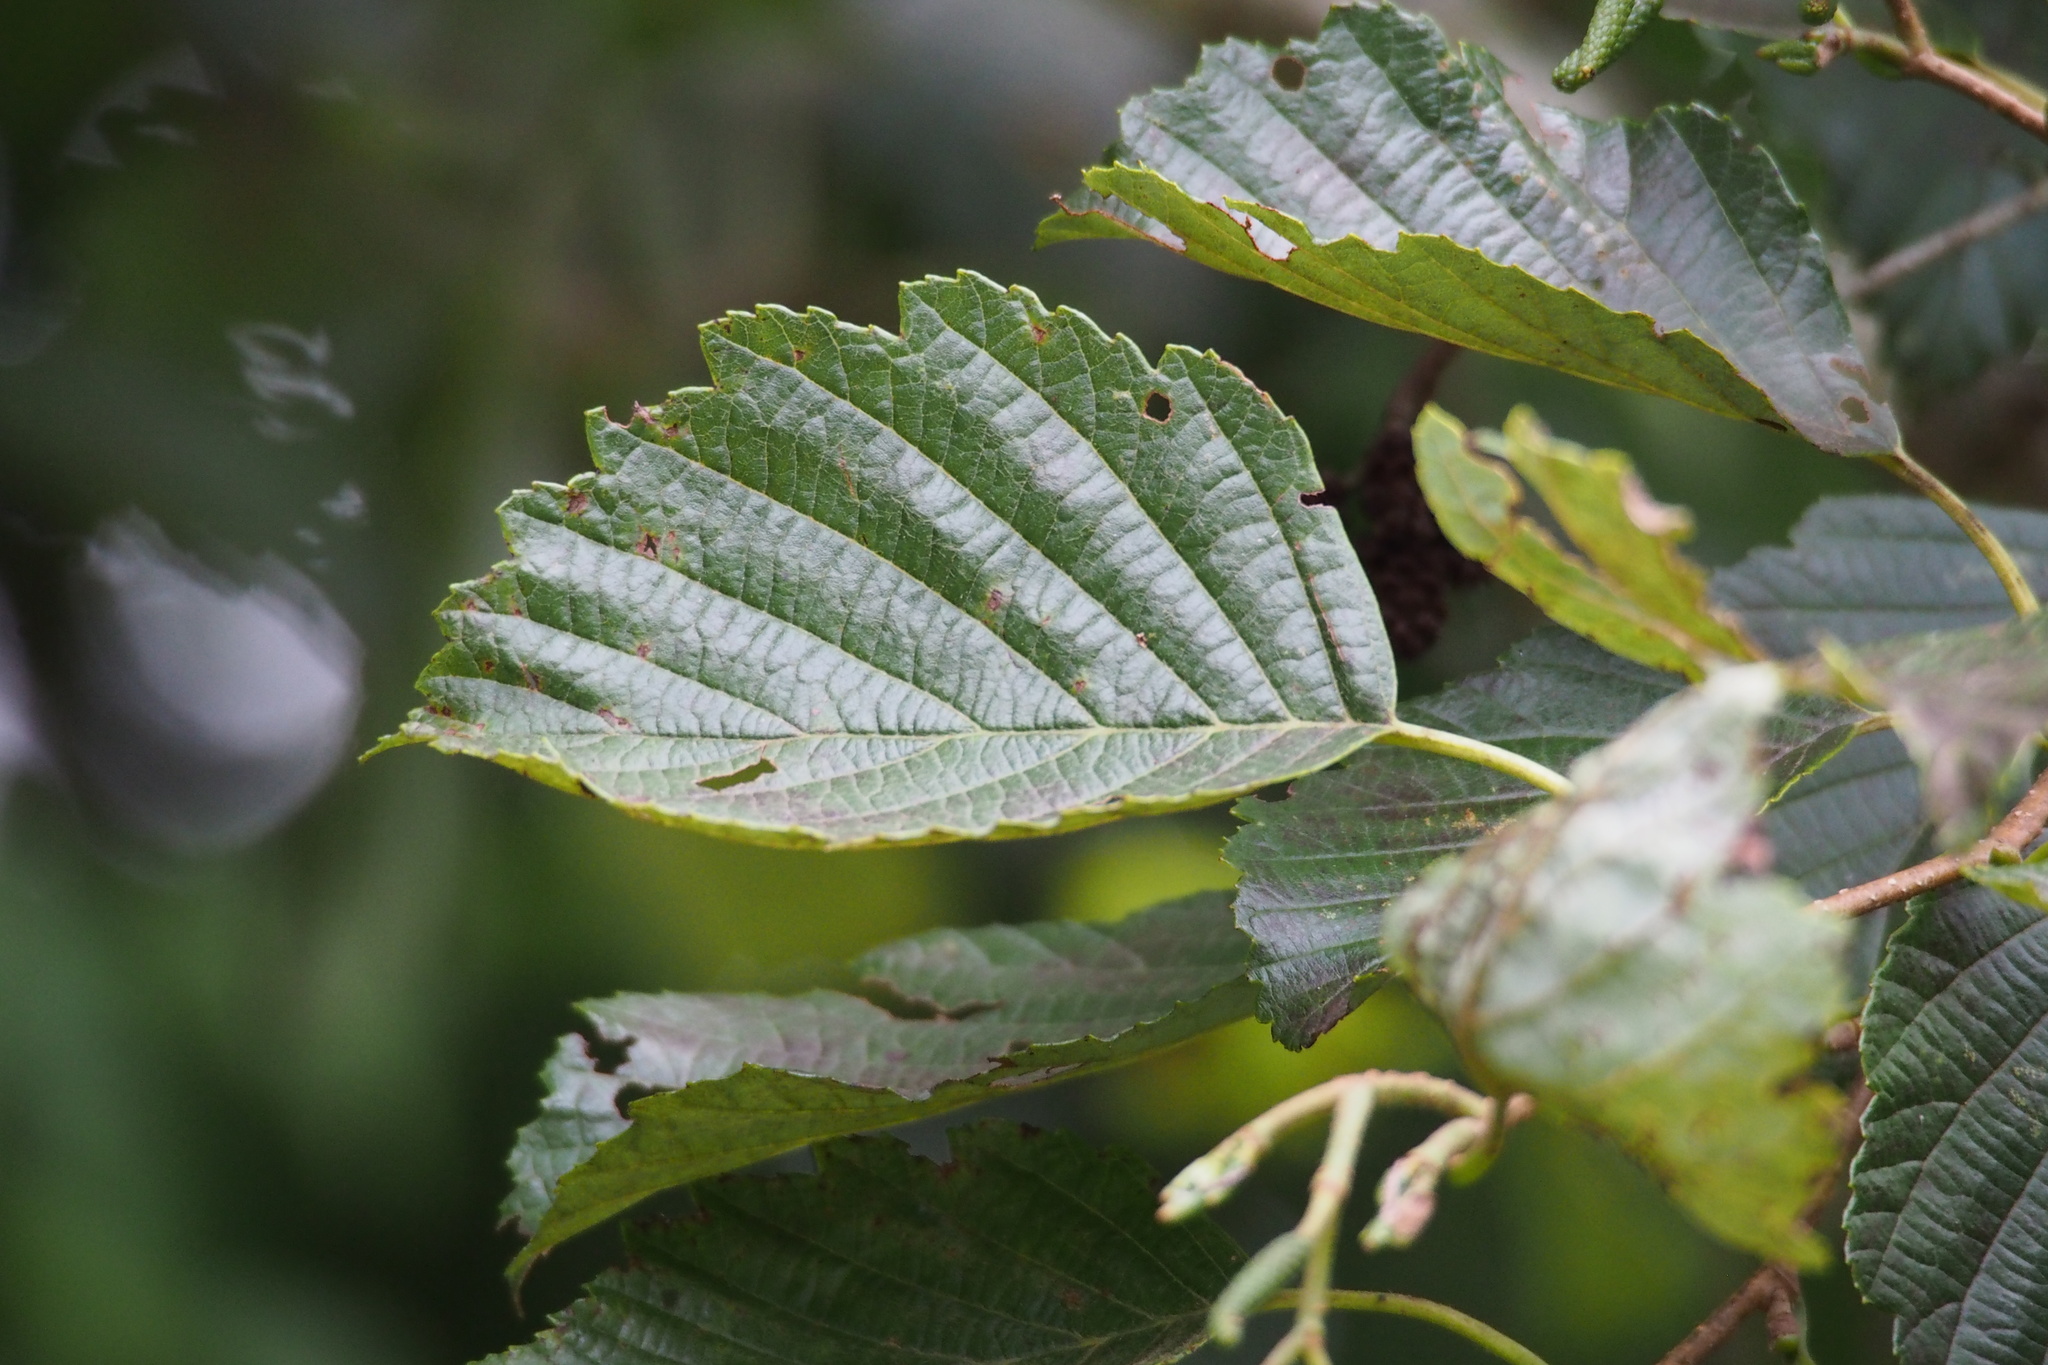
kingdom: Plantae
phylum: Tracheophyta
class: Magnoliopsida
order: Fagales
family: Betulaceae
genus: Alnus
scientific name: Alnus hirsuta
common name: Manchurian alder
